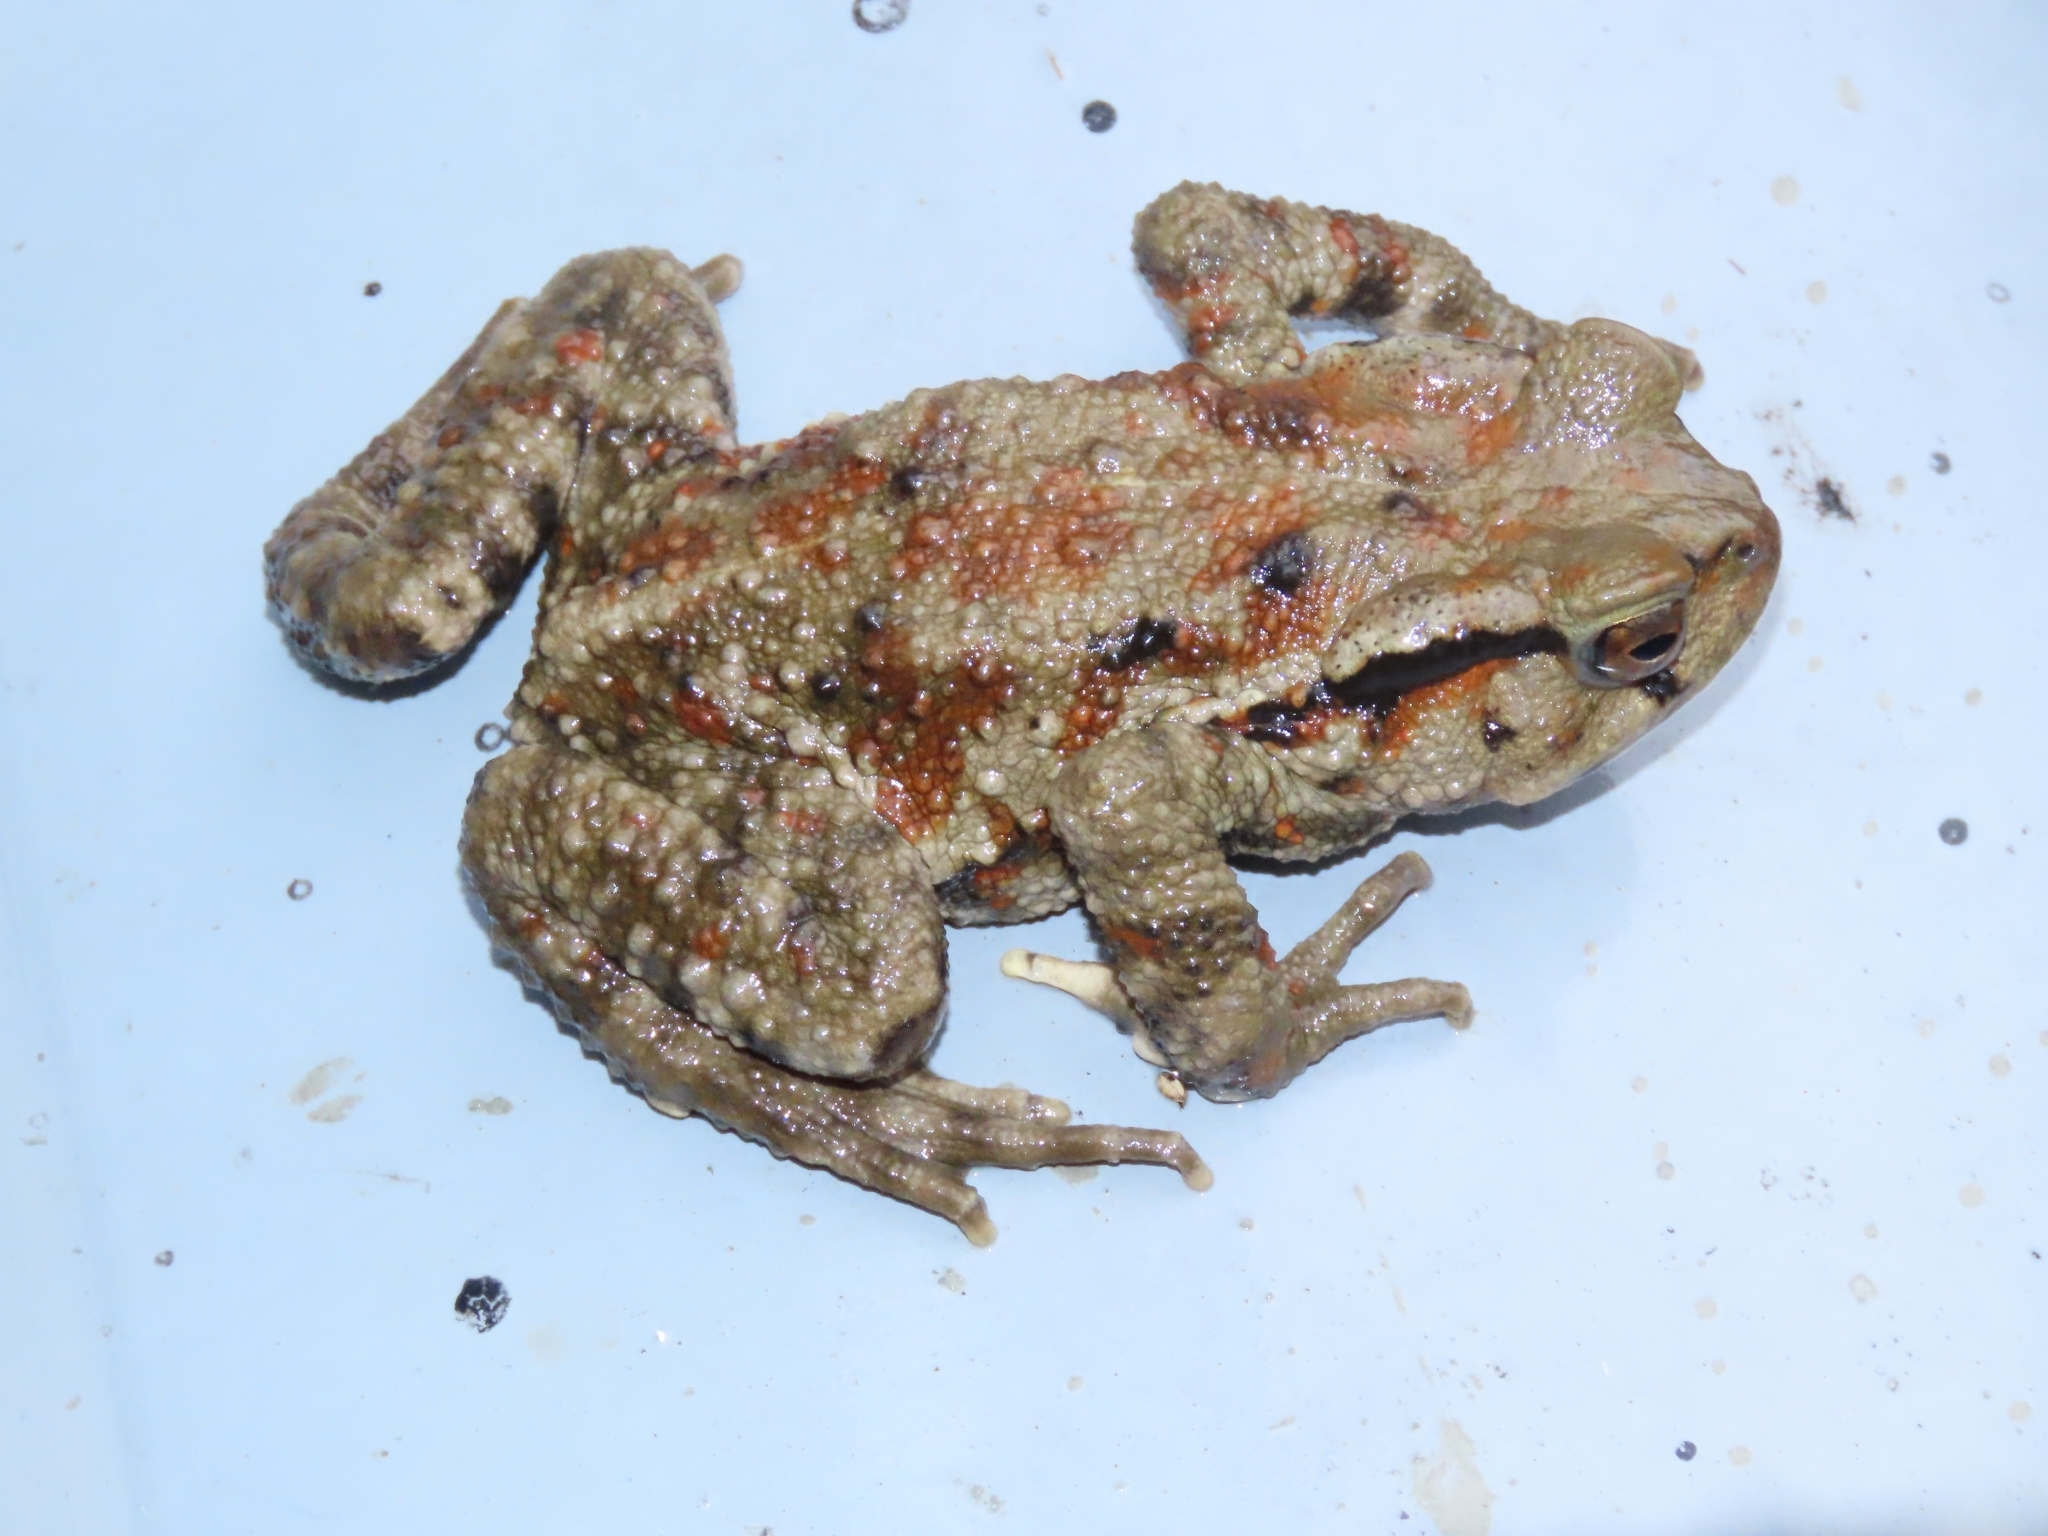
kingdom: Animalia
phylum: Chordata
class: Amphibia
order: Anura
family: Bufonidae
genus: Bufo
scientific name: Bufo bankorensis
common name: Bankor toad
